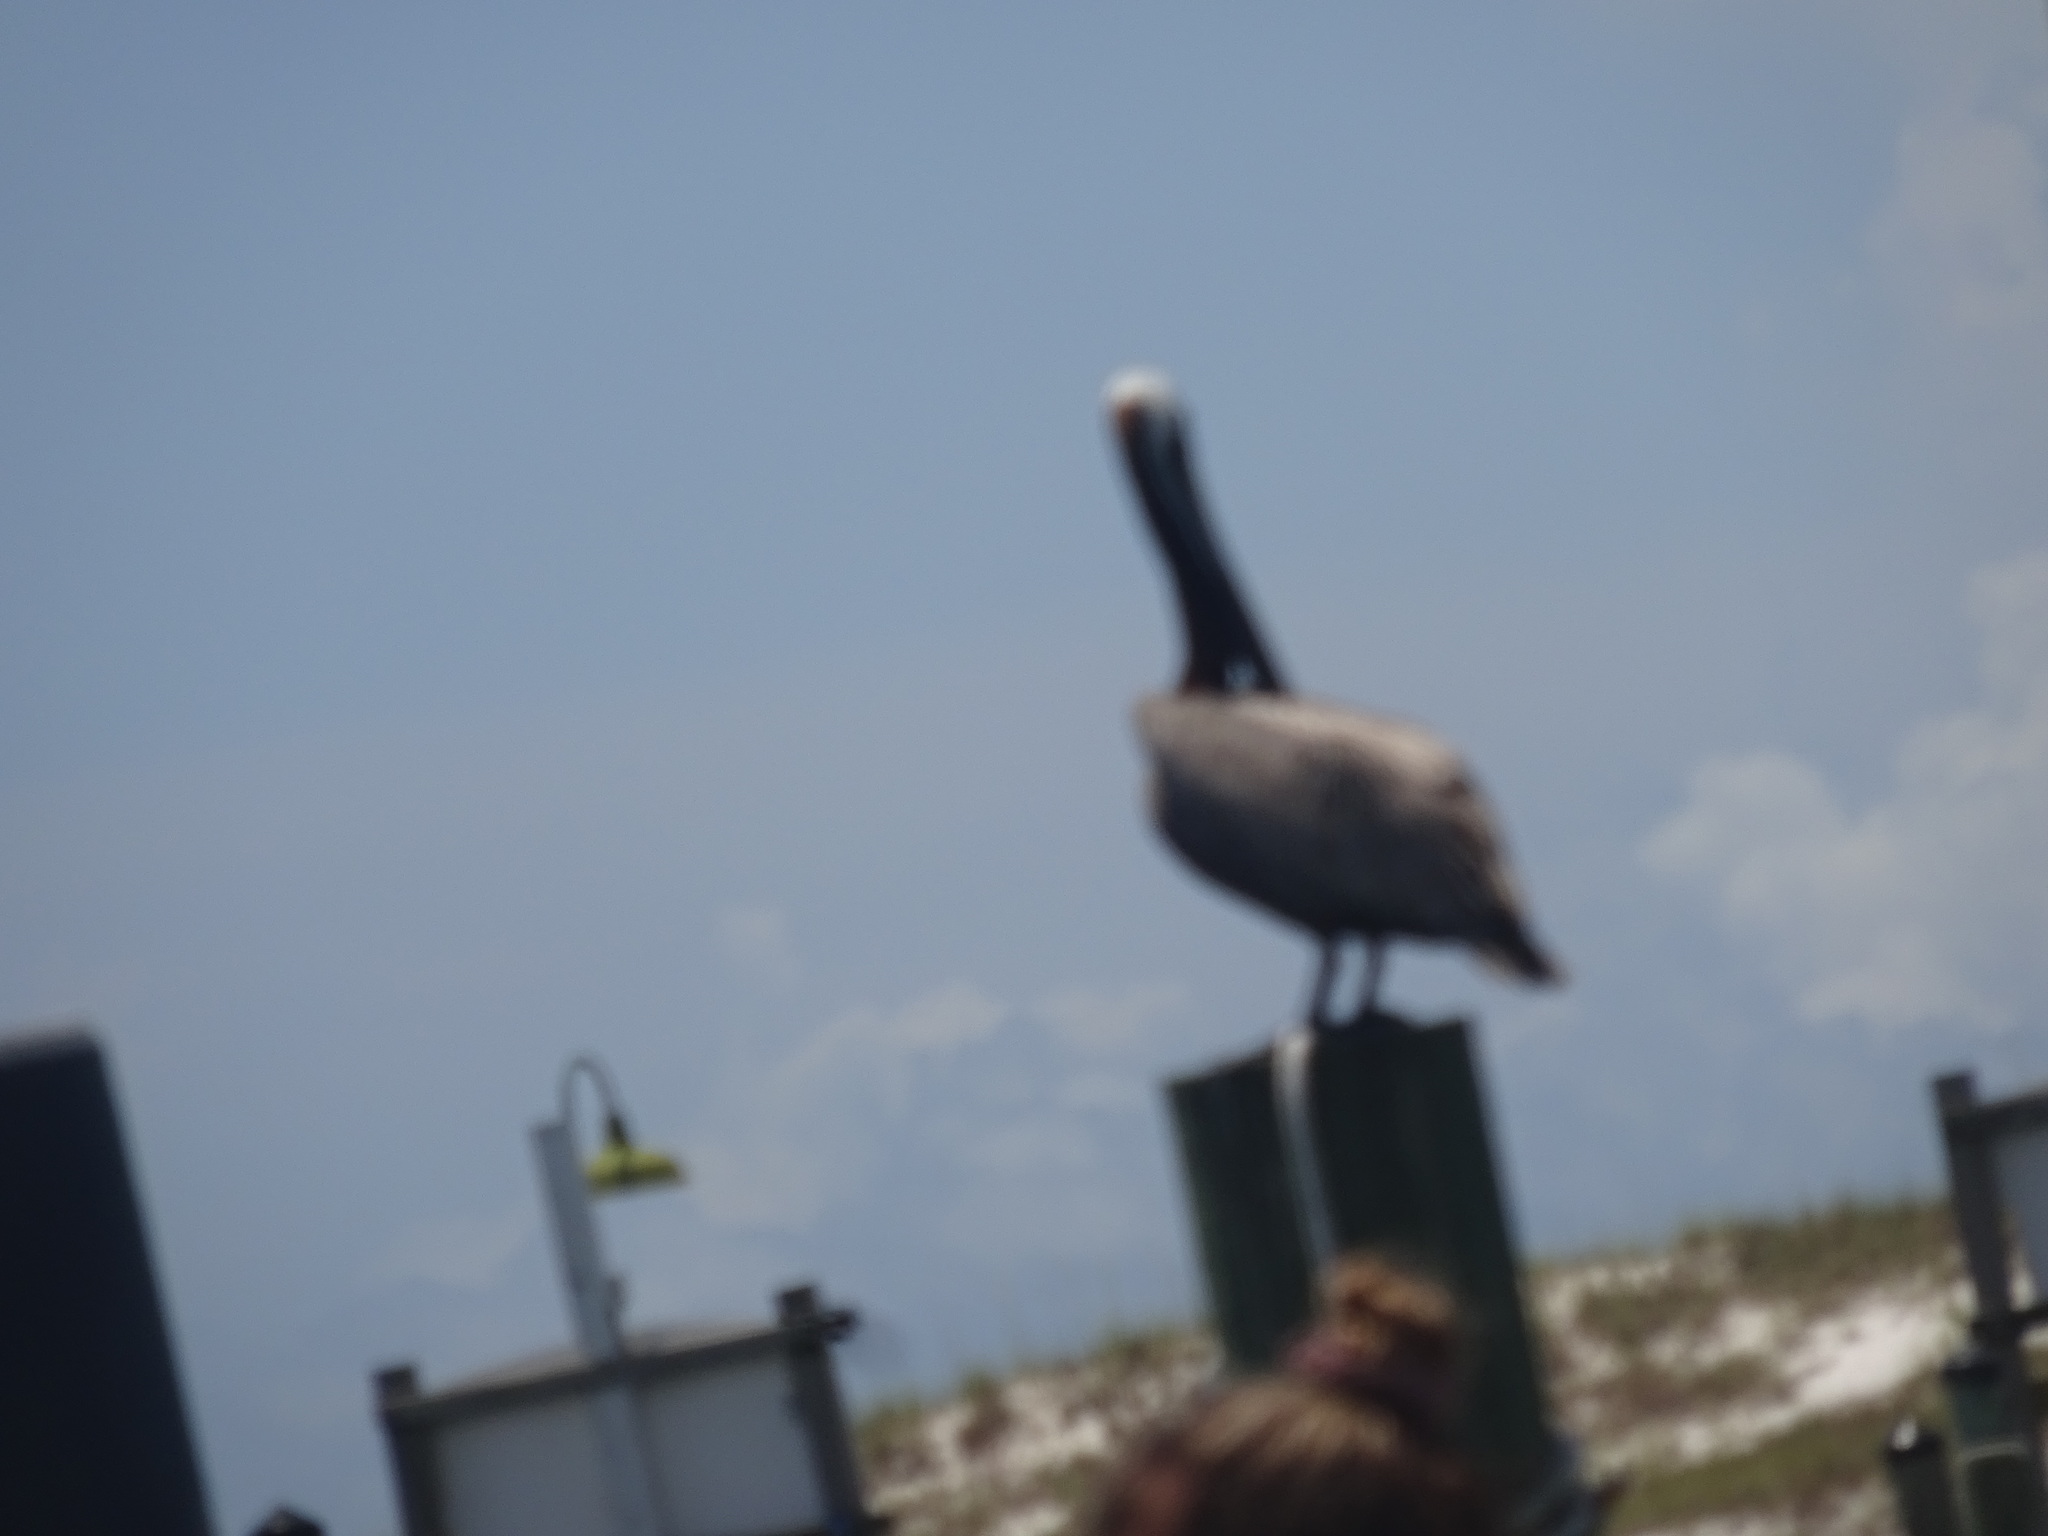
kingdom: Animalia
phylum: Chordata
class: Aves
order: Pelecaniformes
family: Pelecanidae
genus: Pelecanus
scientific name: Pelecanus occidentalis
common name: Brown pelican
